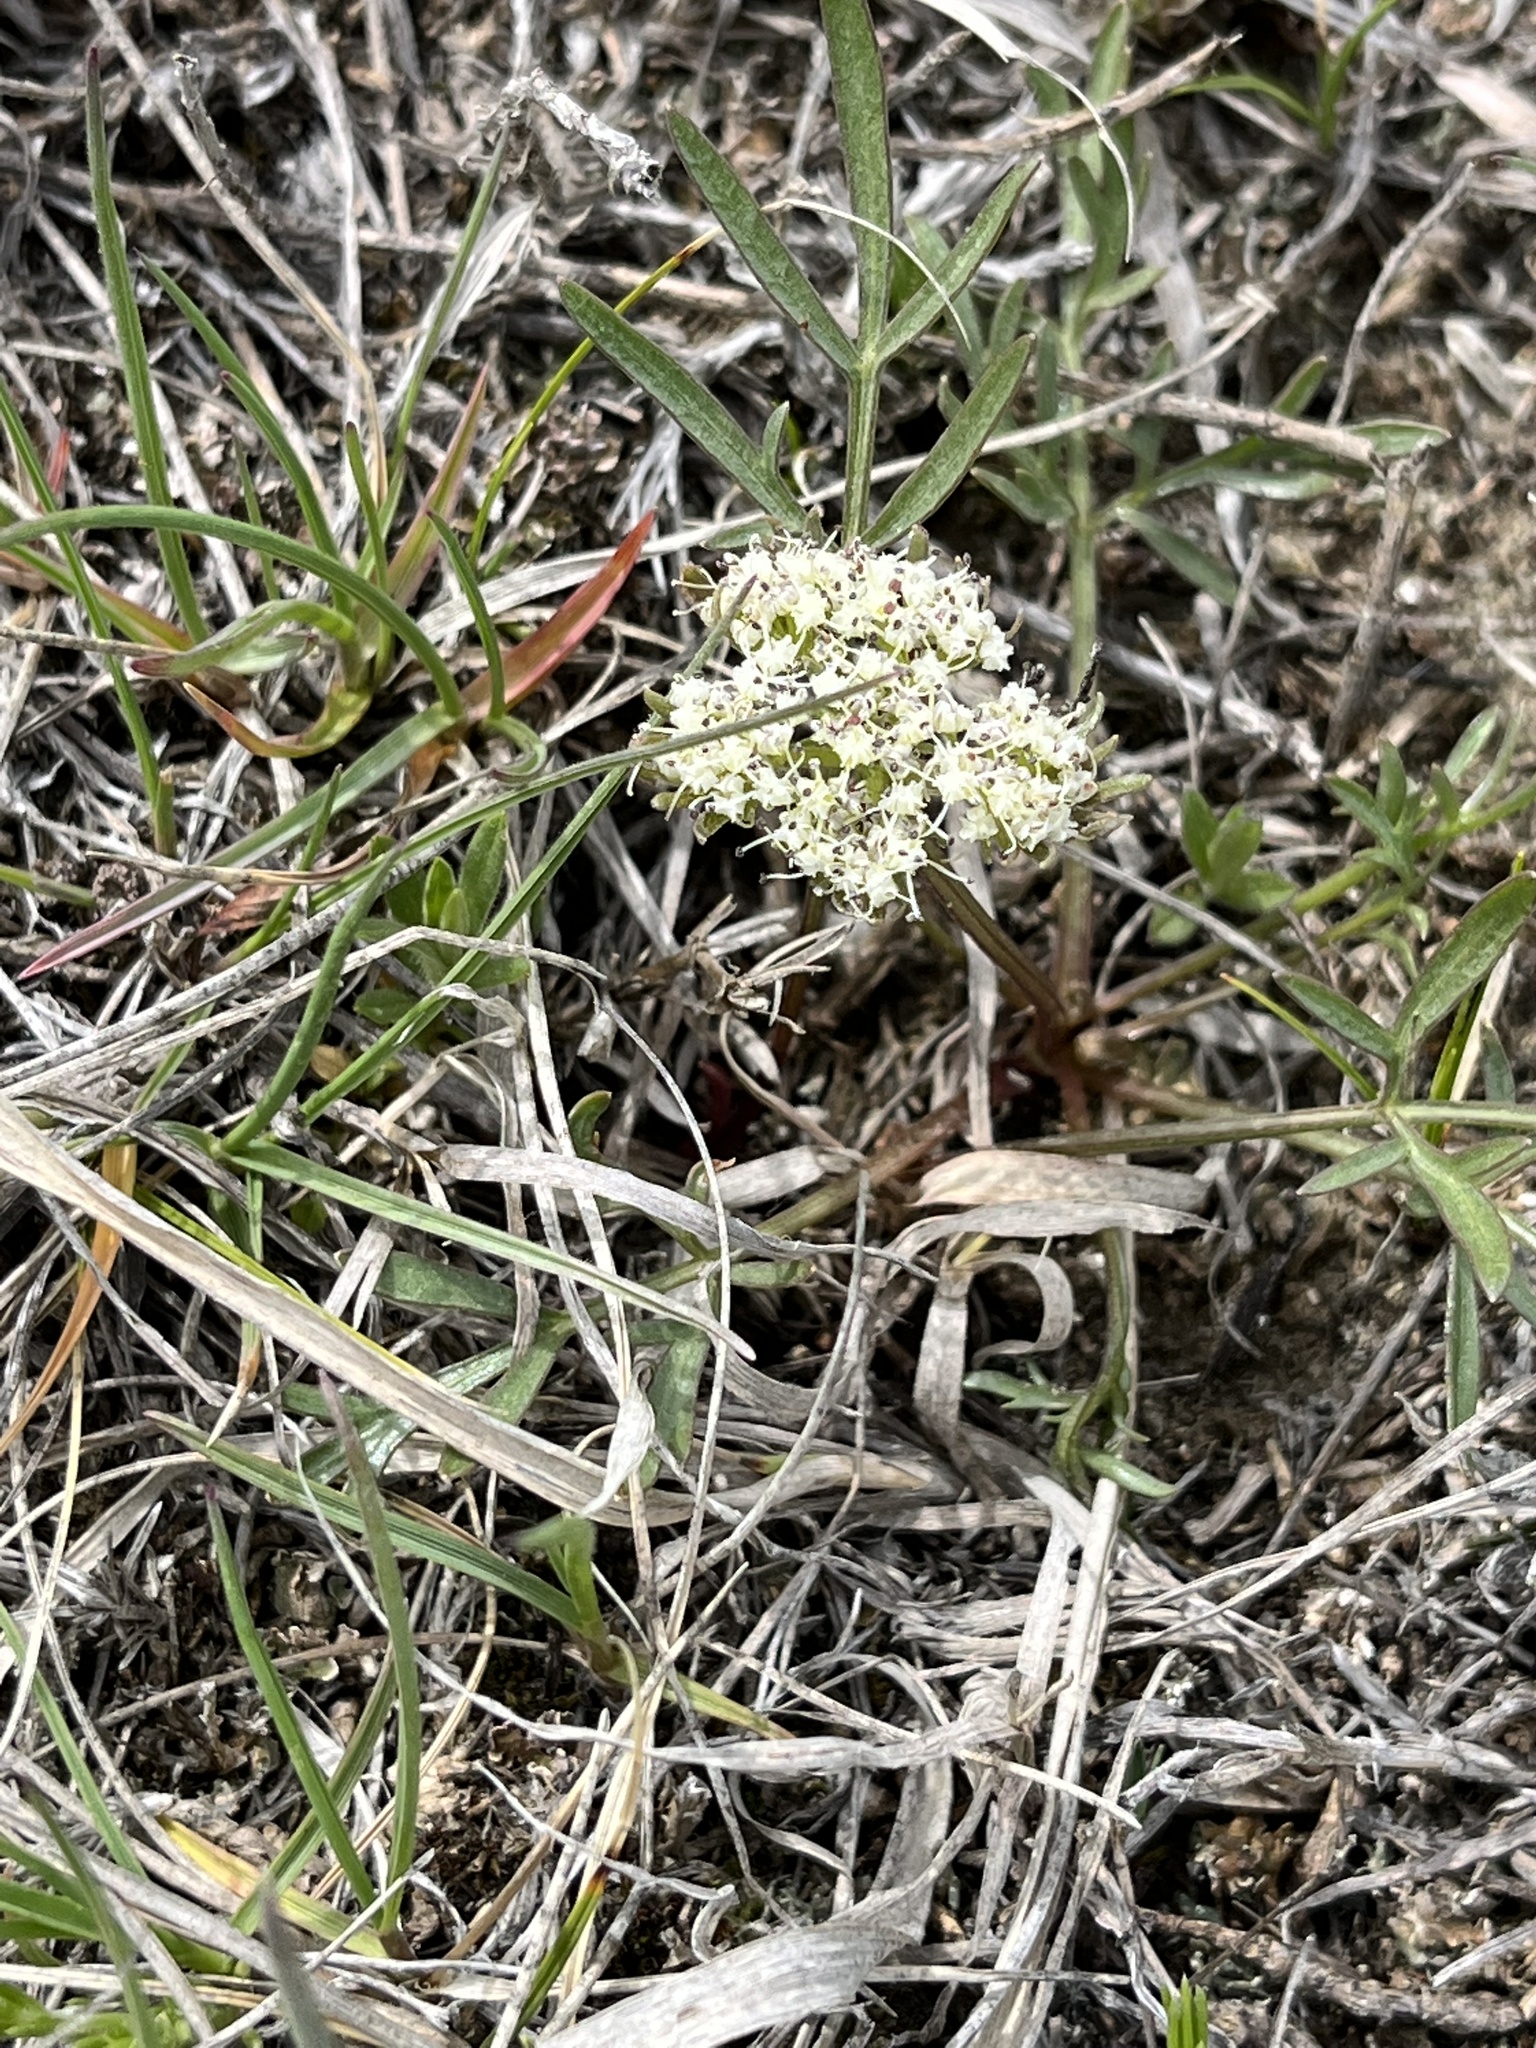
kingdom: Plantae
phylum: Tracheophyta
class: Magnoliopsida
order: Apiales
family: Apiaceae
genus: Cymopterus
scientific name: Cymopterus glomeratus
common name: Plains spring parsley
